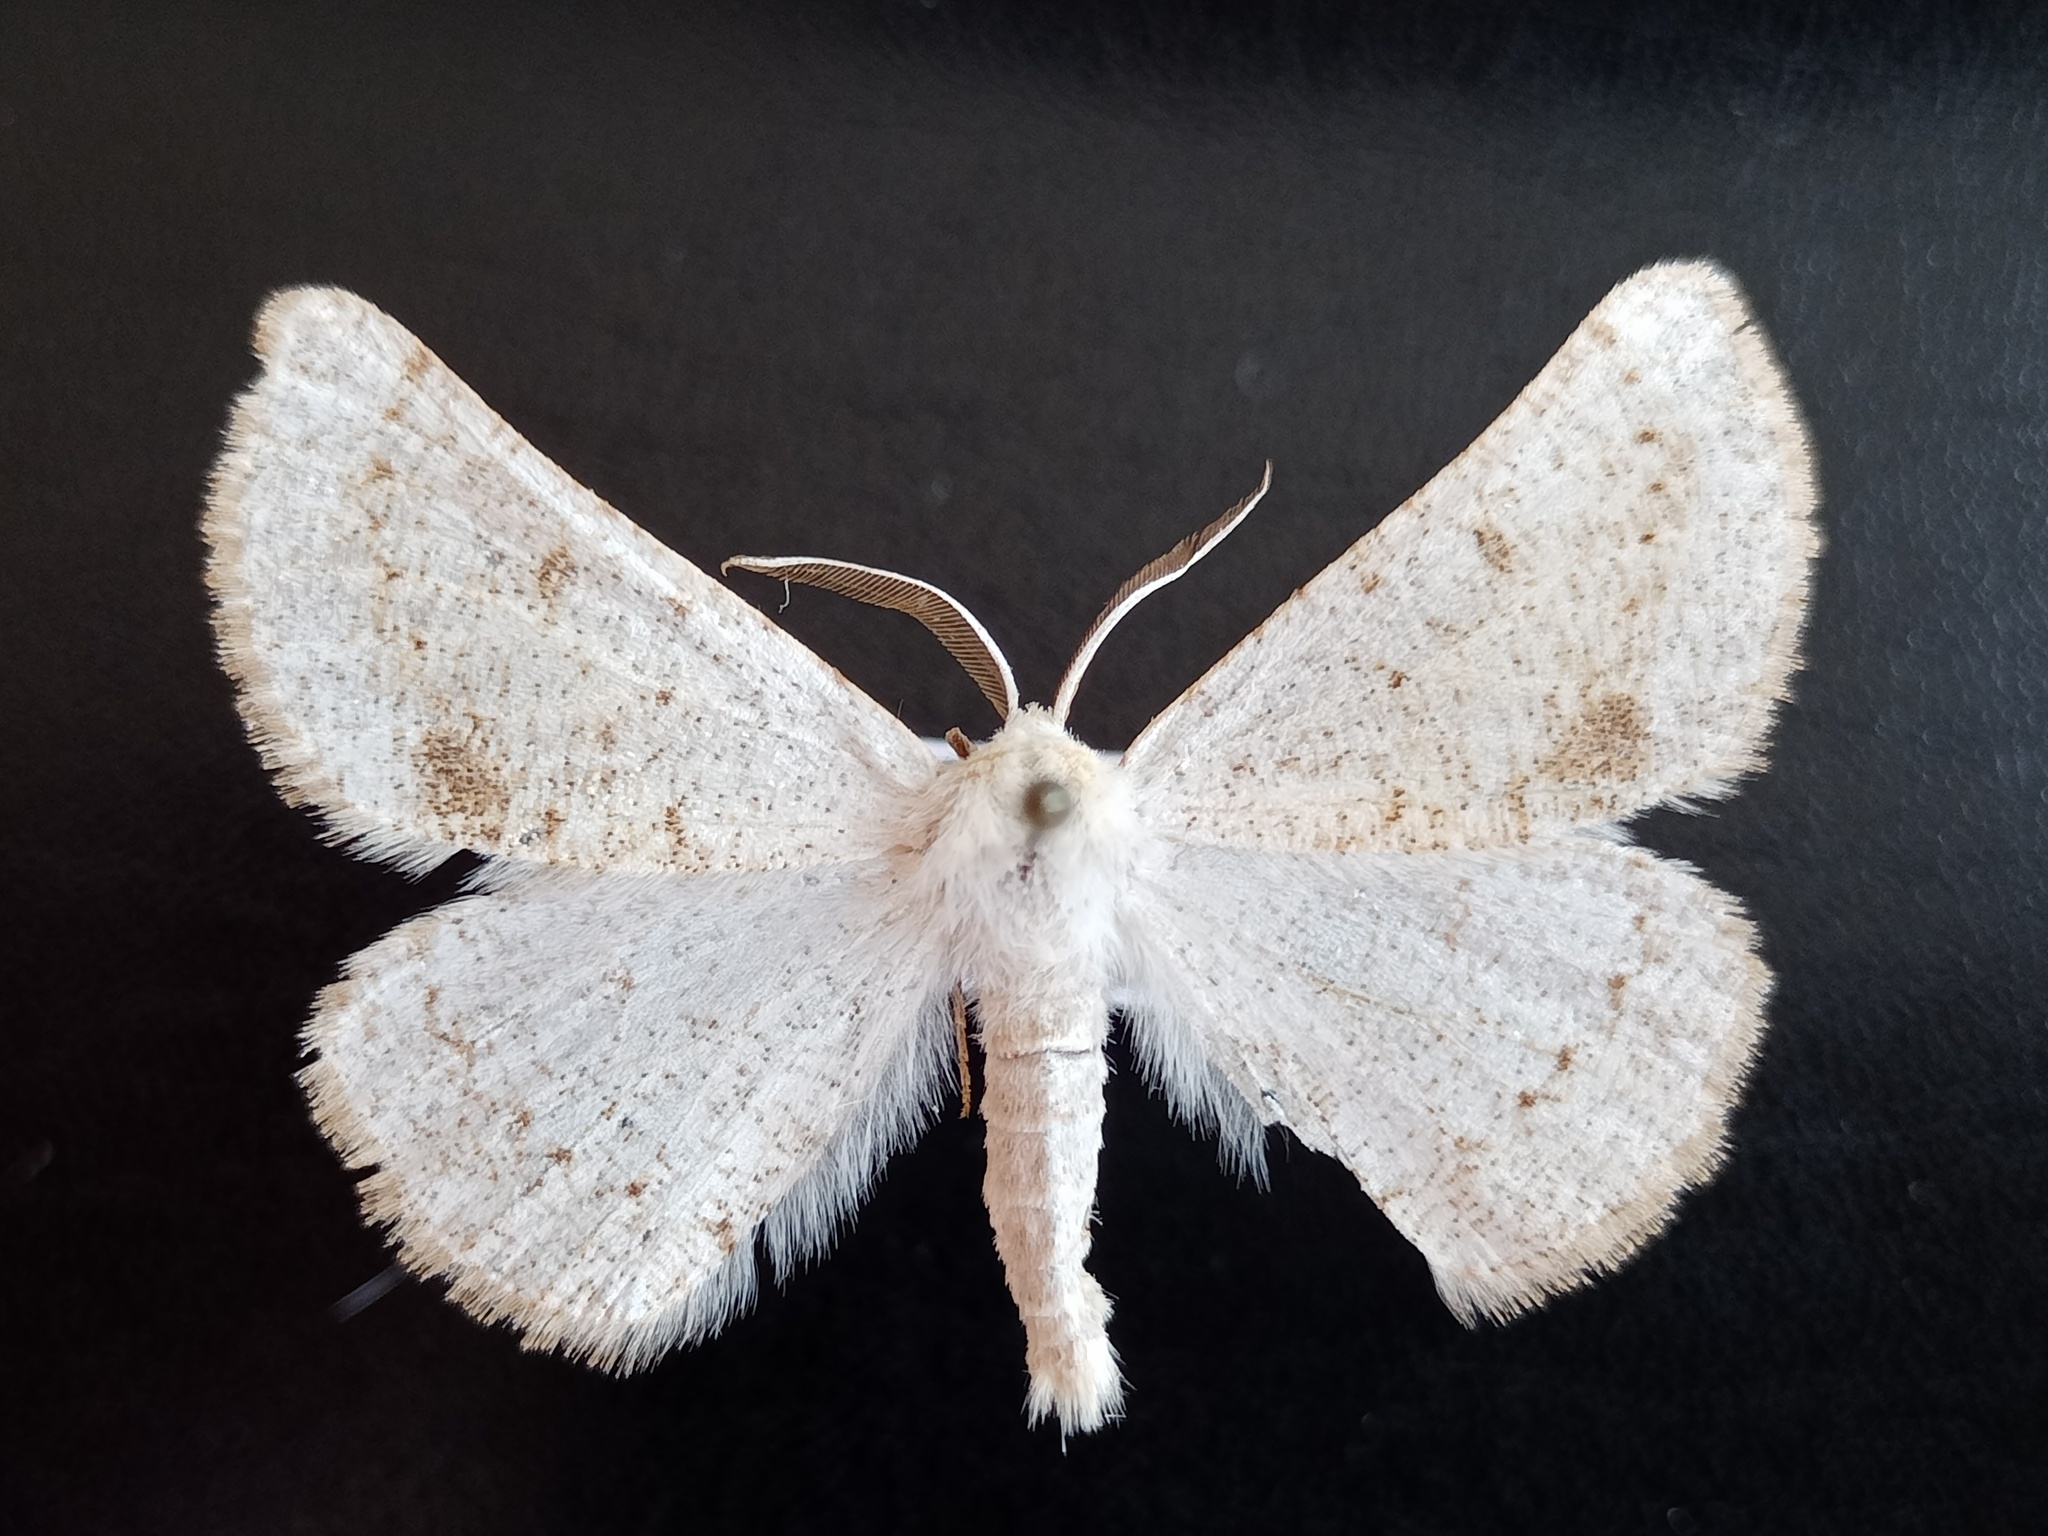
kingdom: Animalia
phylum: Arthropoda
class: Insecta
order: Lepidoptera
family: Geometridae
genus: Dyscia
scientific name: Dyscia conspersaria
